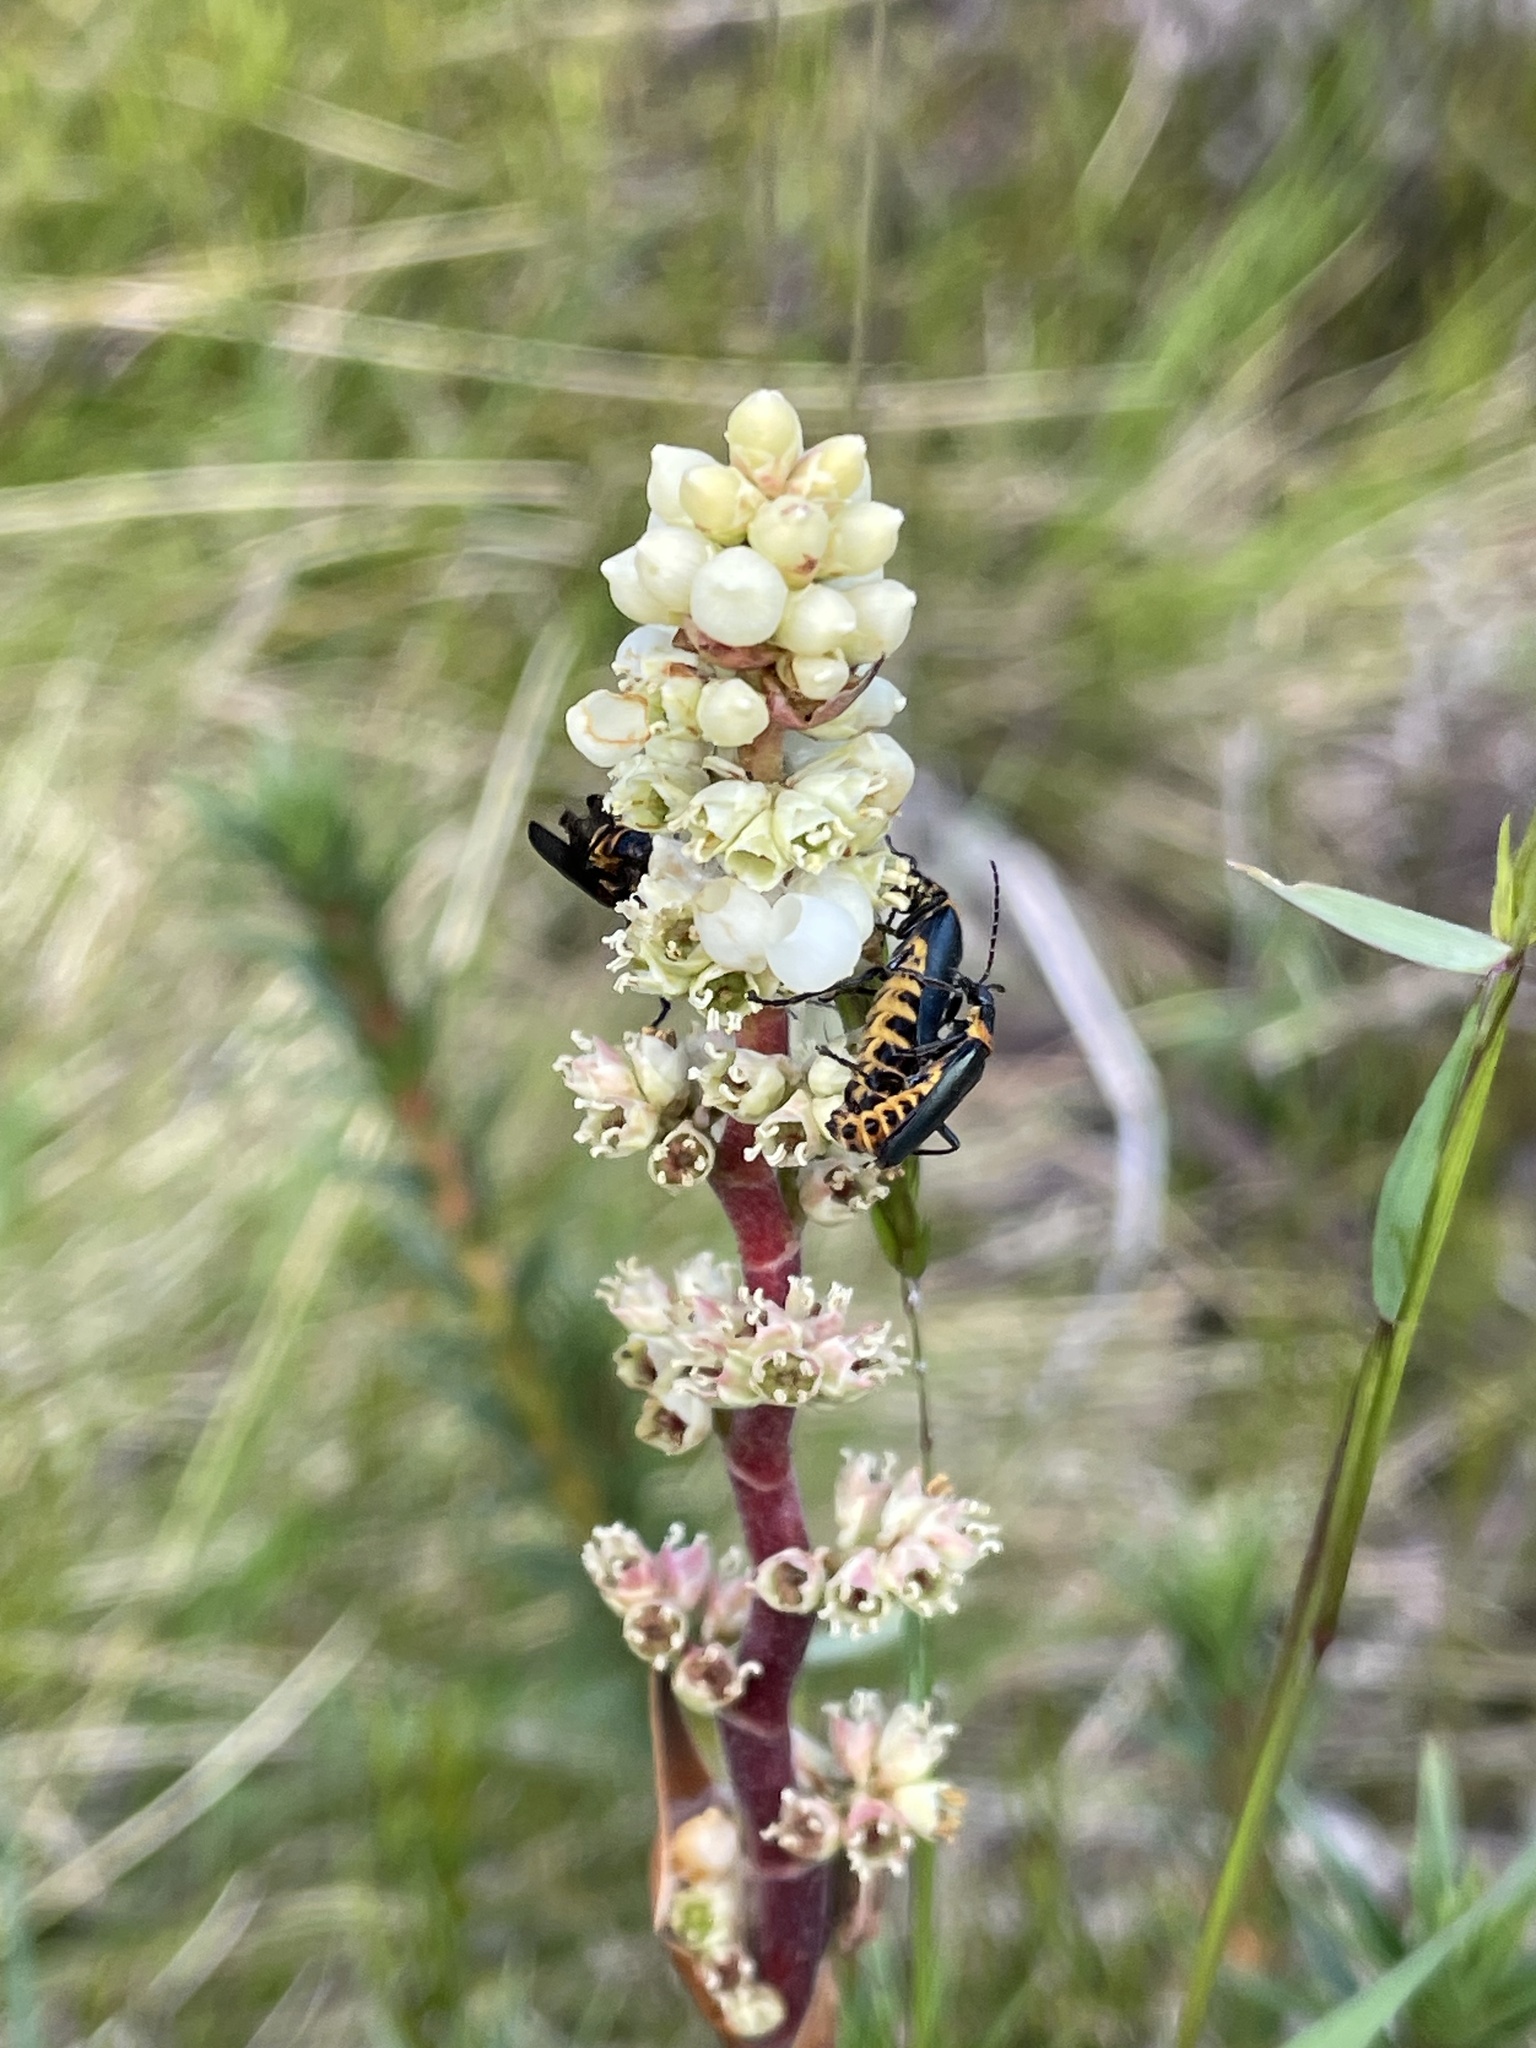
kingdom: Animalia
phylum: Arthropoda
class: Insecta
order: Coleoptera
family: Cantharidae
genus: Chauliognathus
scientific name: Chauliognathus
